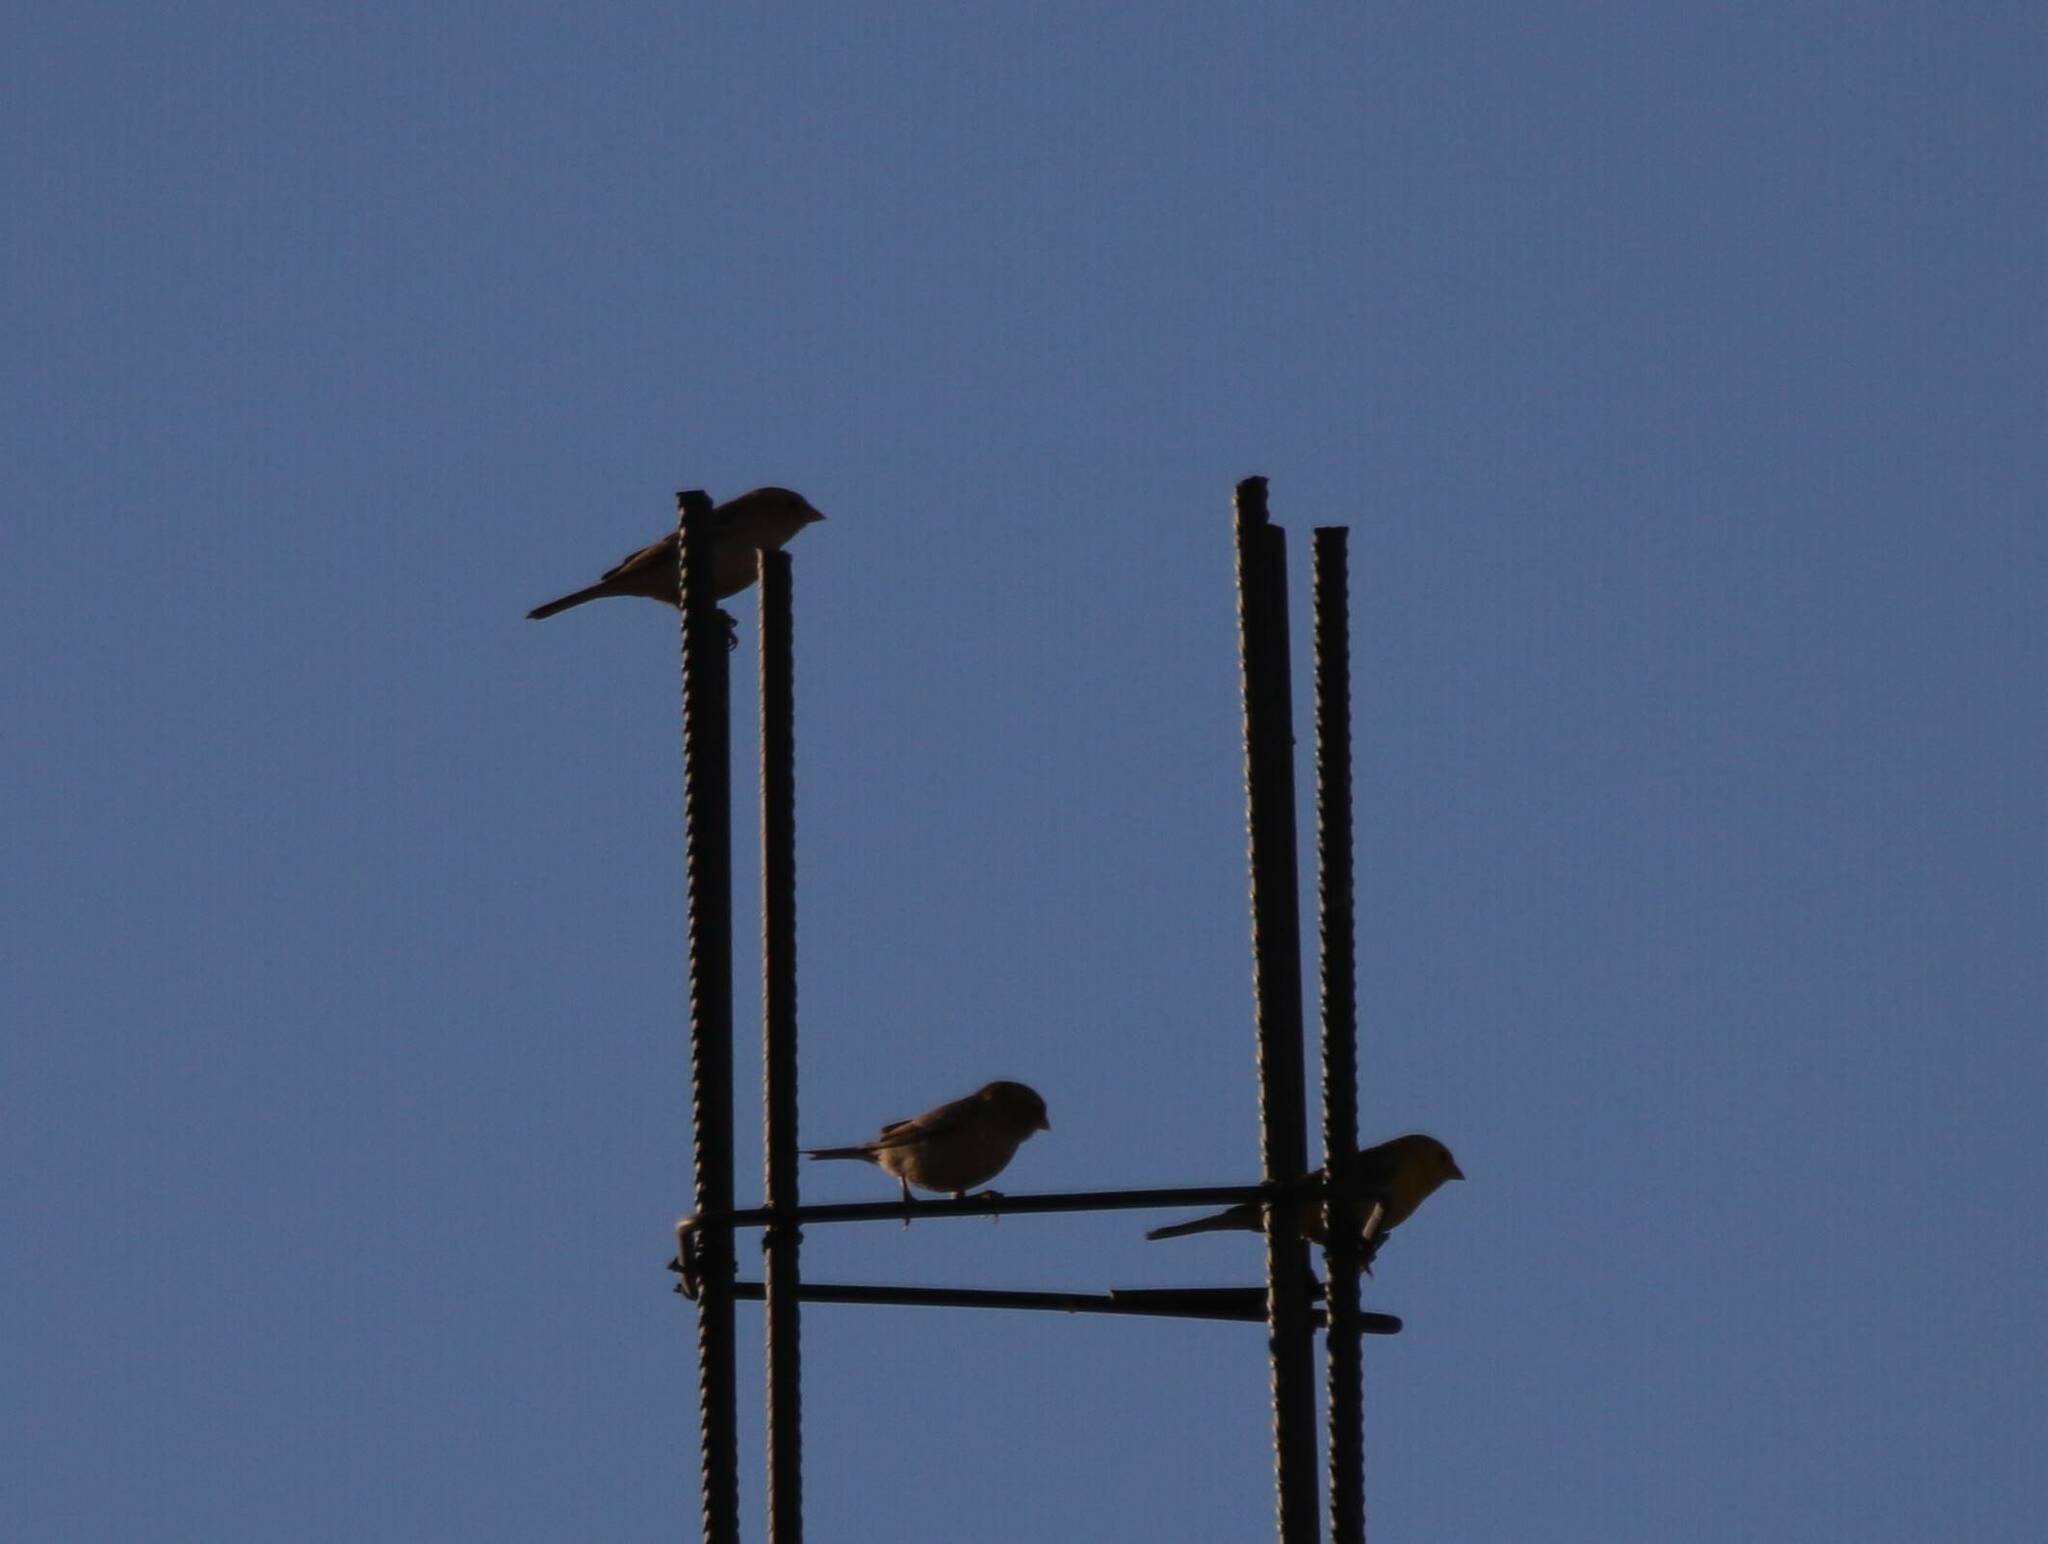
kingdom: Animalia
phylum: Chordata
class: Aves
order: Passeriformes
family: Passeridae
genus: Passer
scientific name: Passer luteus
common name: Sudan golden sparrow
